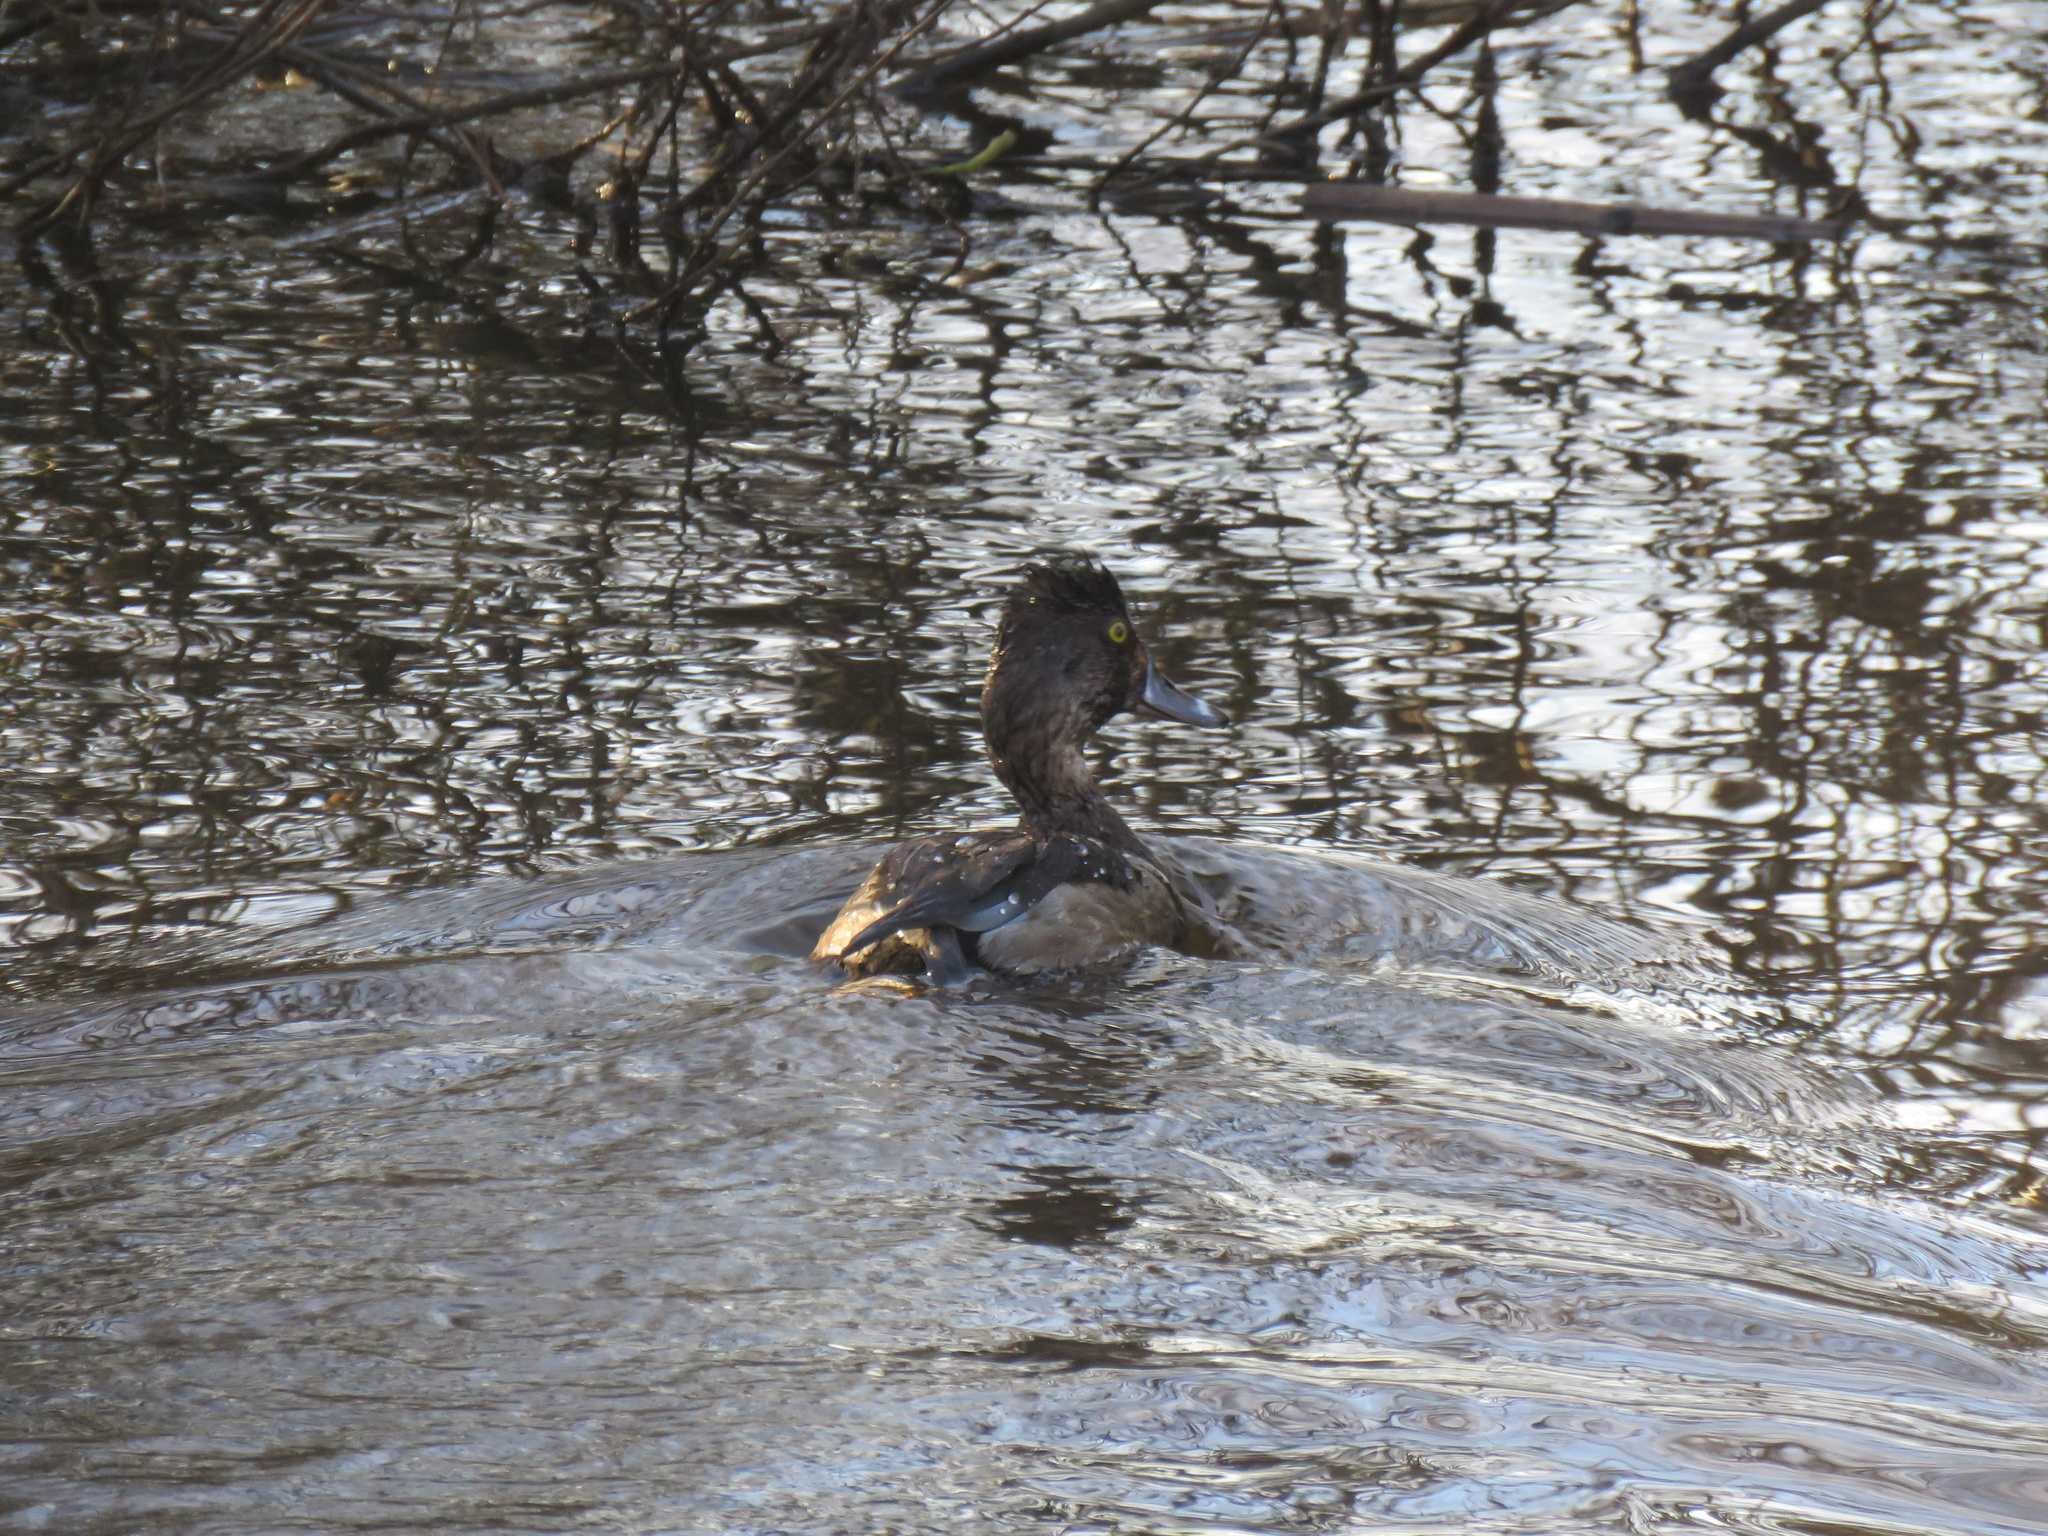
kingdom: Animalia
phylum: Chordata
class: Aves
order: Anseriformes
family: Anatidae
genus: Aythya
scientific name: Aythya collaris
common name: Ring-necked duck
